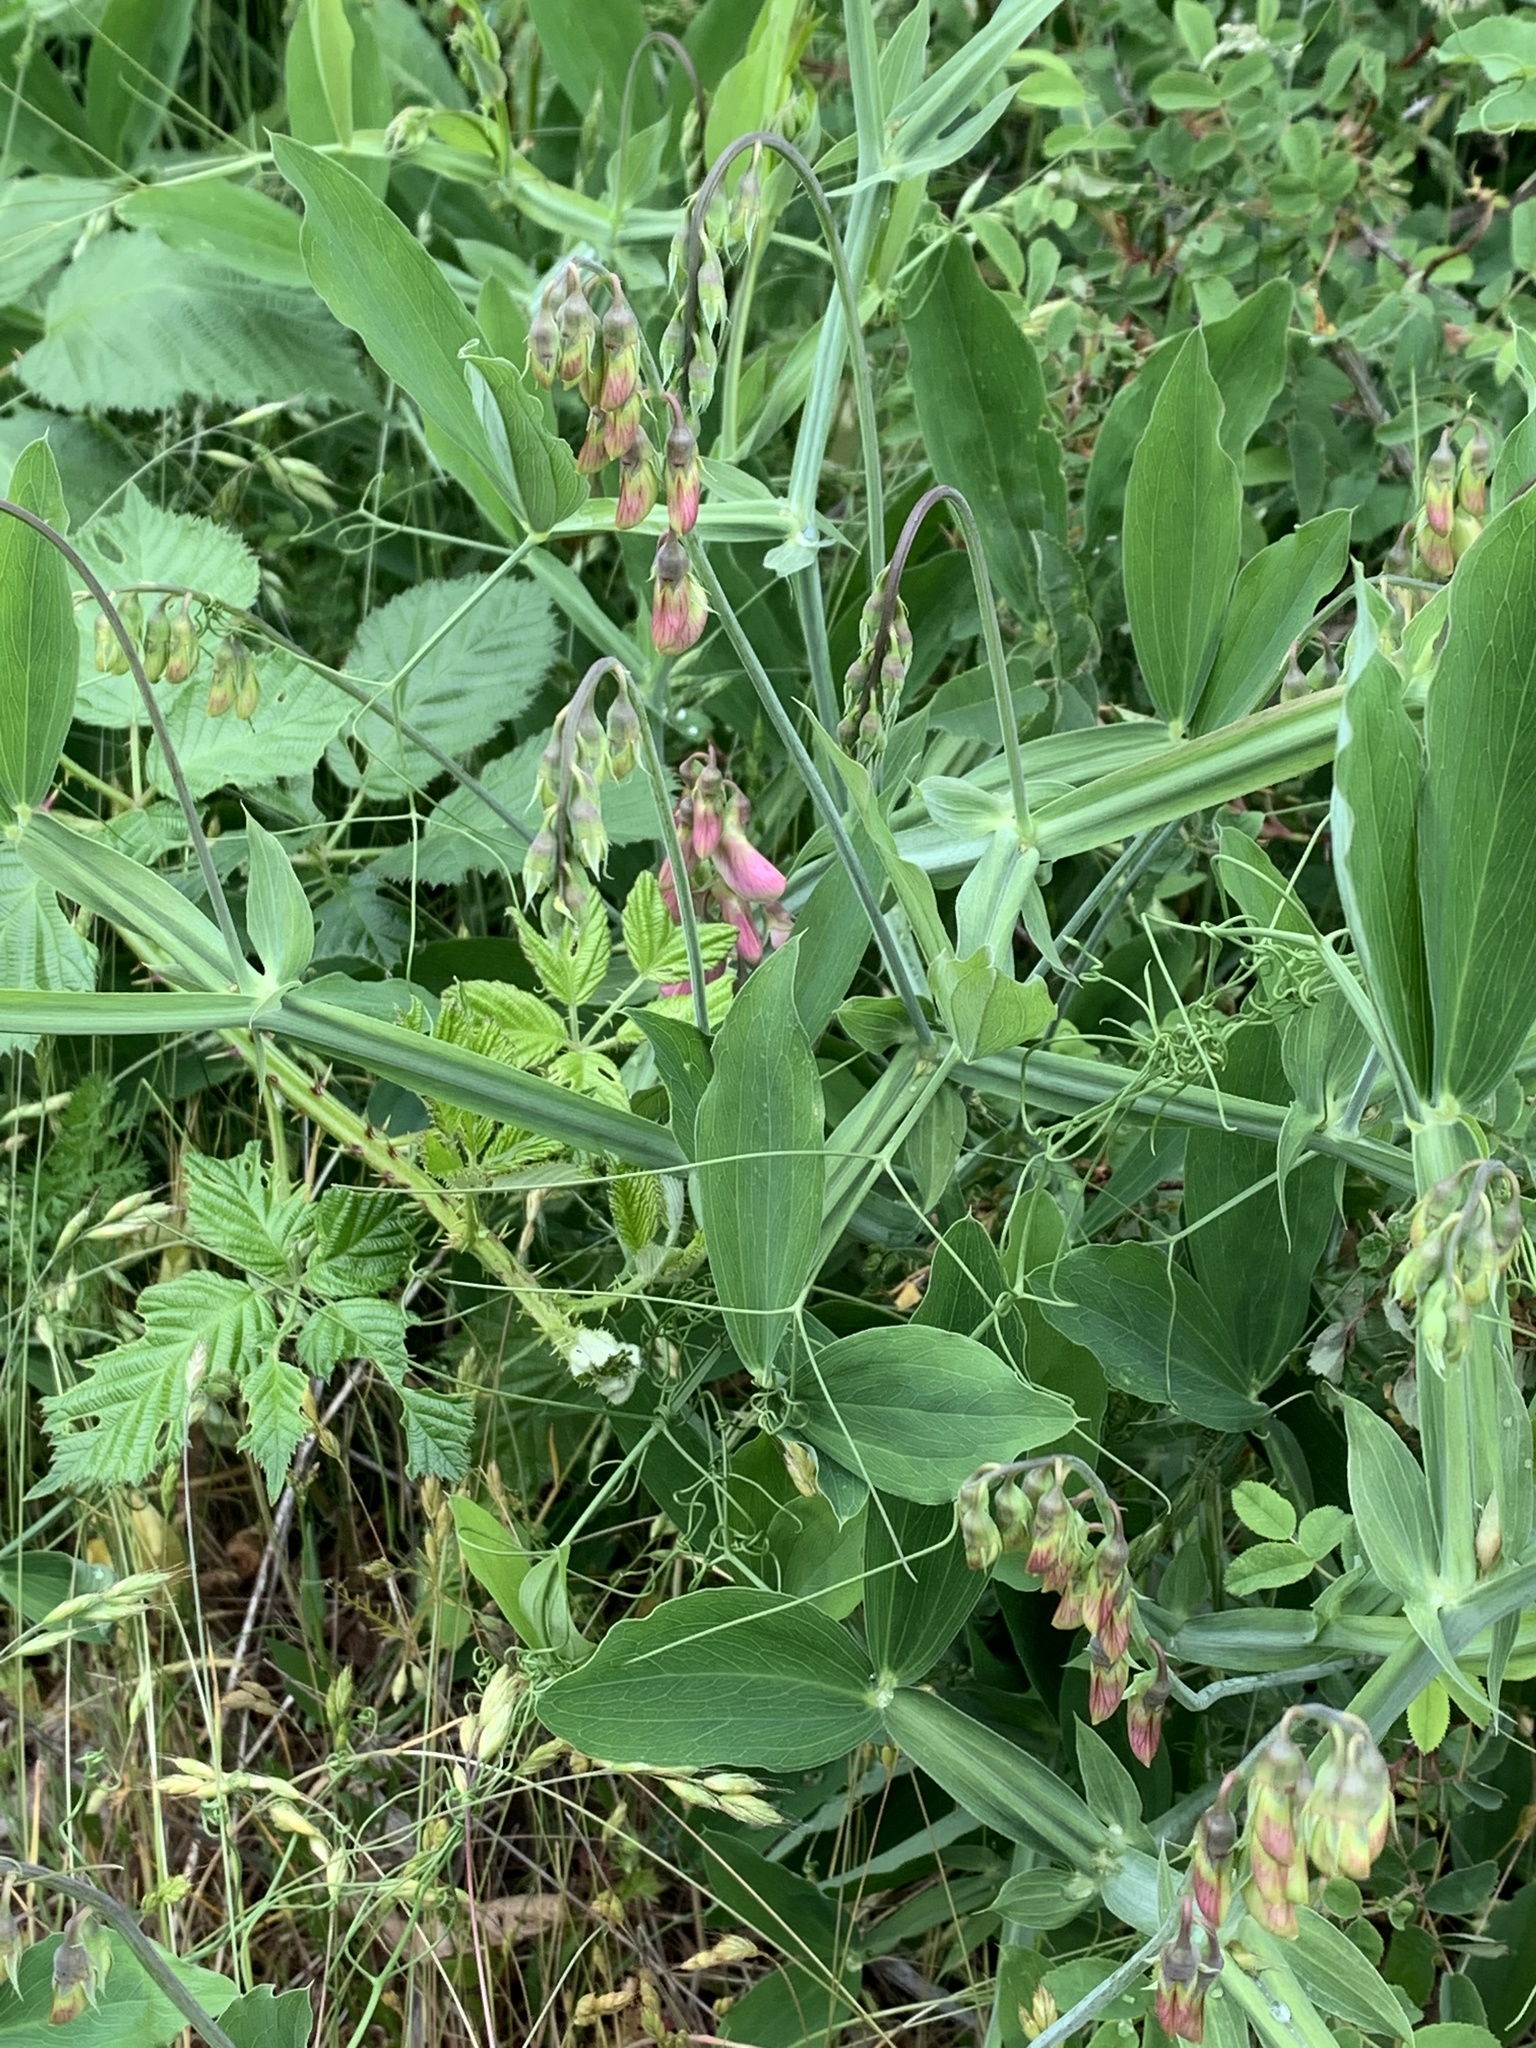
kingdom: Plantae
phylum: Tracheophyta
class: Magnoliopsida
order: Fabales
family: Fabaceae
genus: Lathyrus
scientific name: Lathyrus latifolius
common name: Perennial pea
